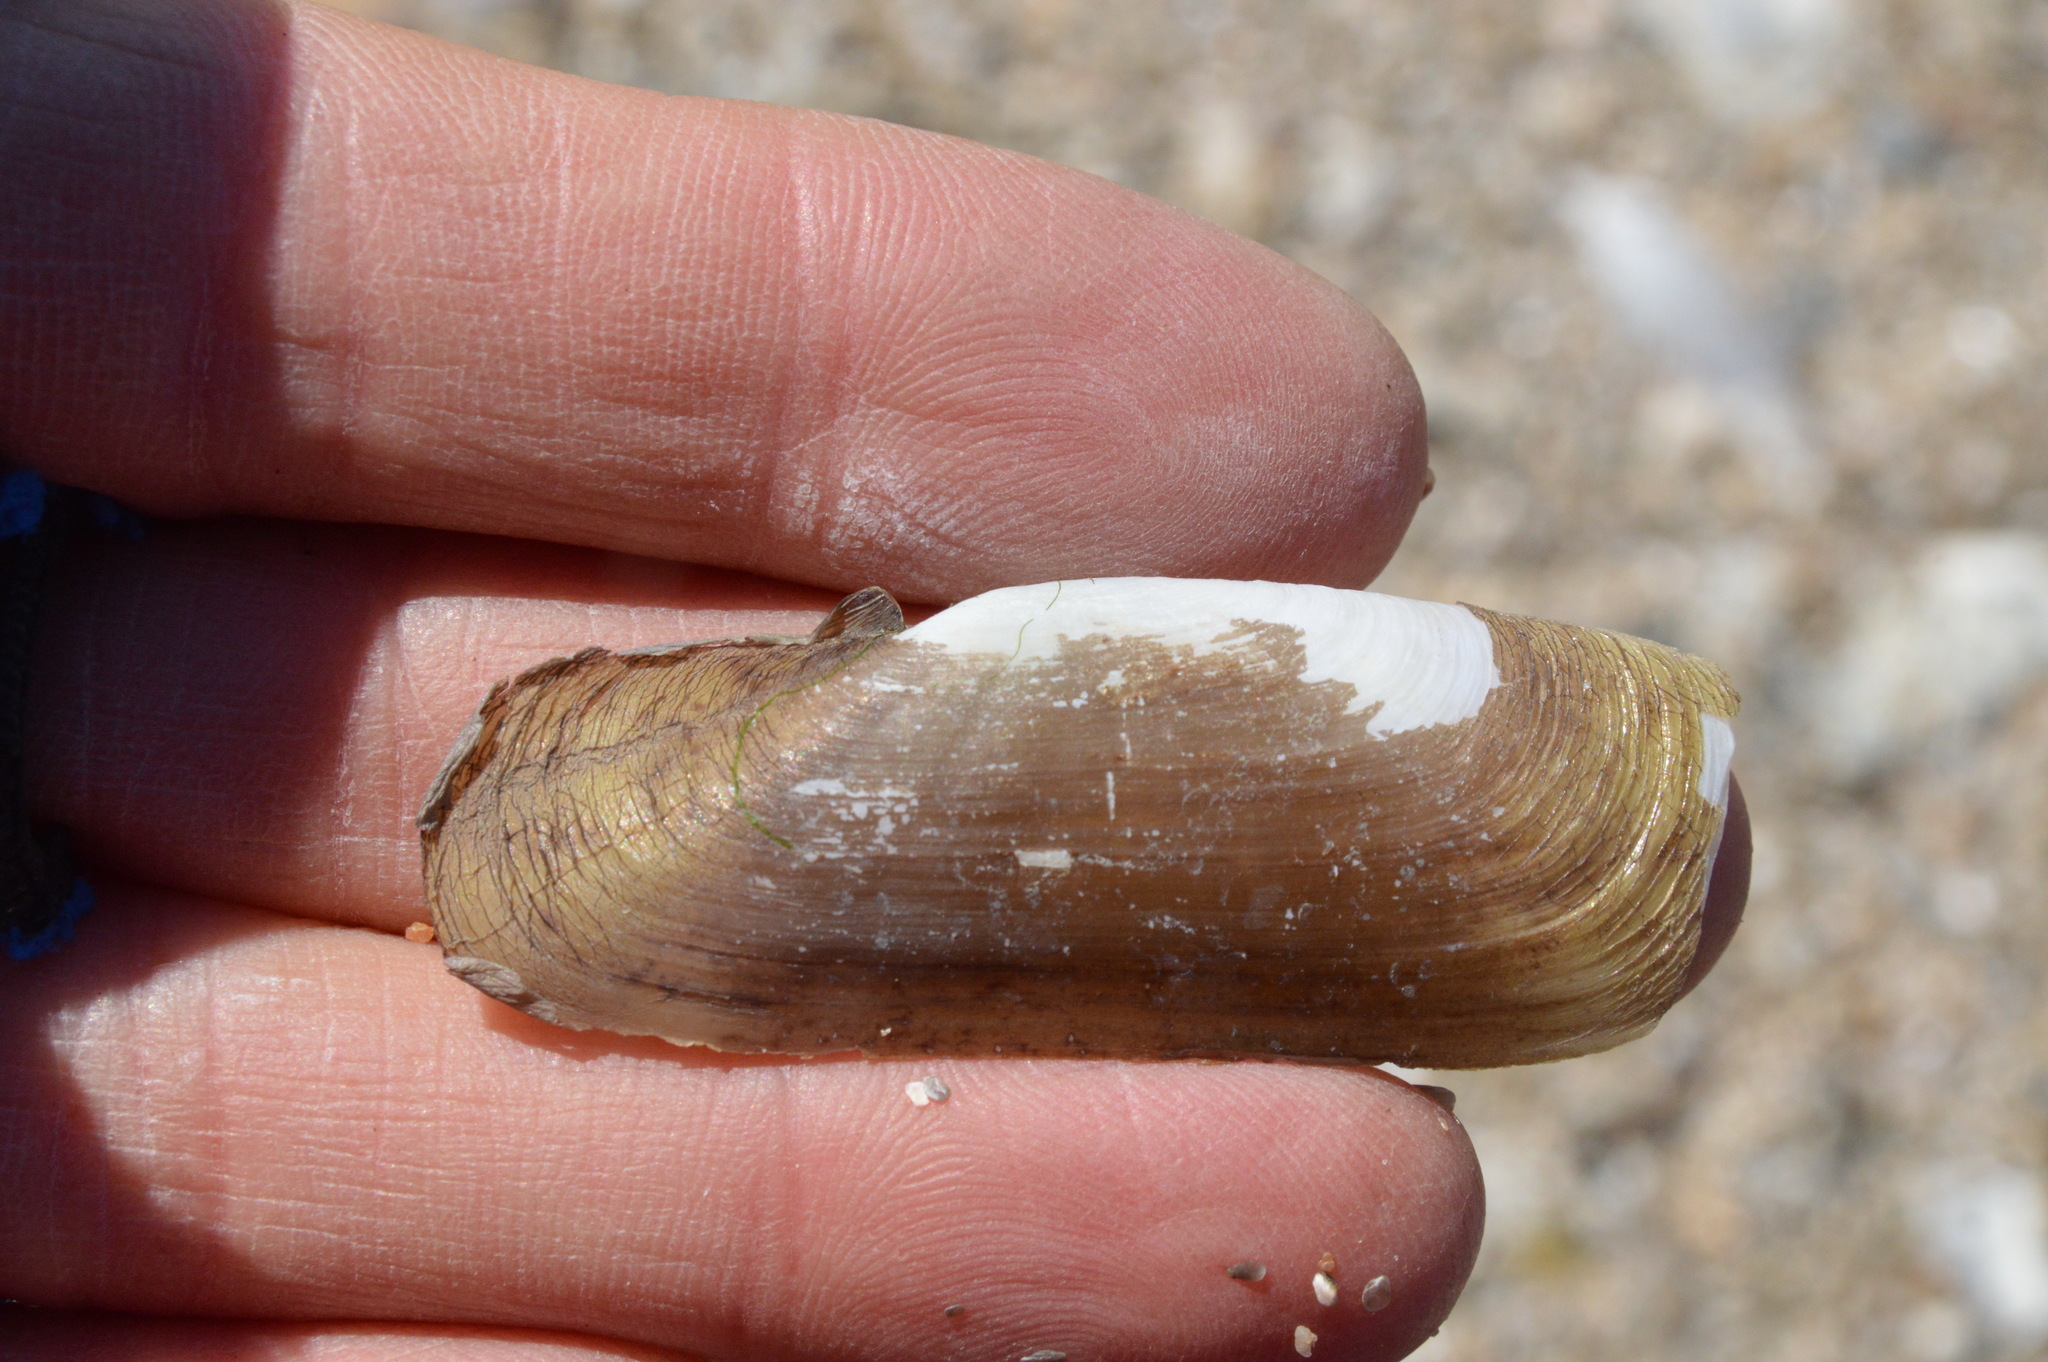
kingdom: Animalia
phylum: Mollusca
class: Bivalvia
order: Cardiida
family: Solecurtidae
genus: Tagelus
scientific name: Tagelus plebeius
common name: Stout tagelus
